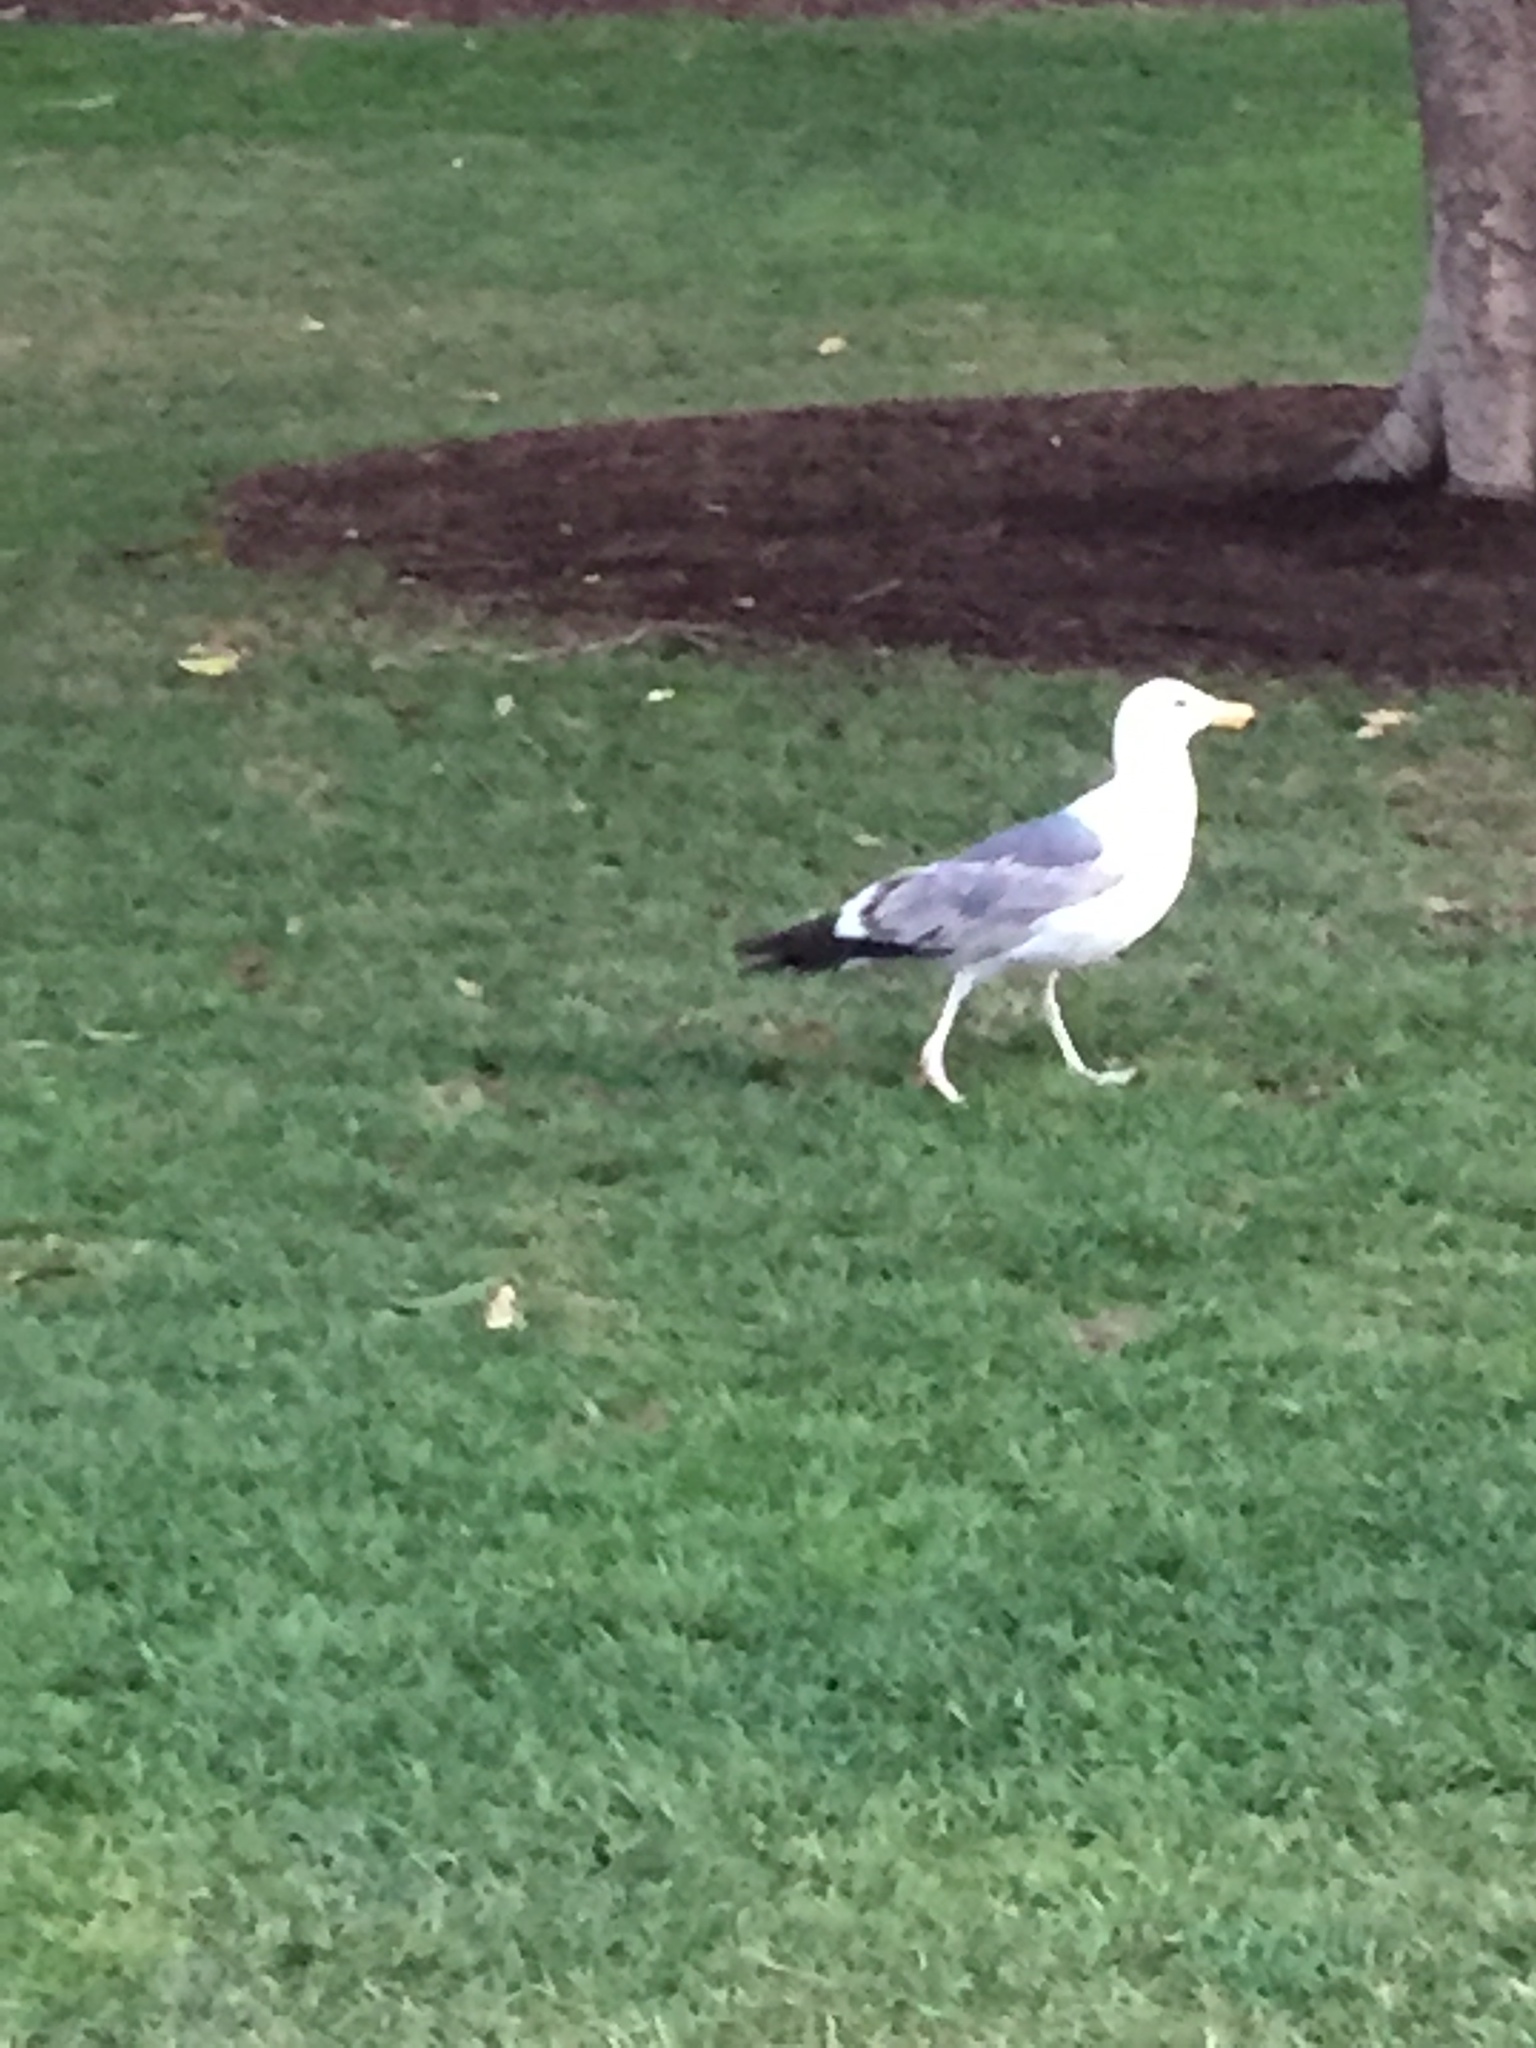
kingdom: Animalia
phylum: Chordata
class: Aves
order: Charadriiformes
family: Laridae
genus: Larus
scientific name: Larus californicus
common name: California gull
